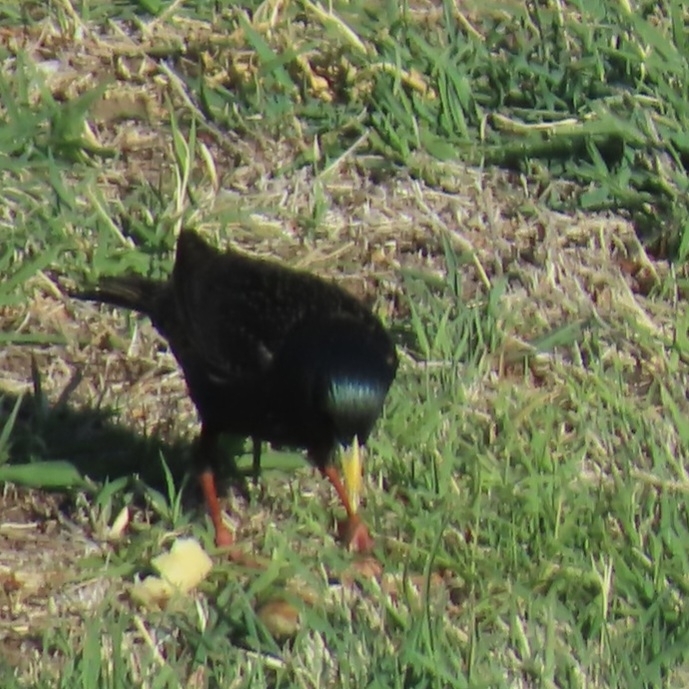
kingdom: Animalia
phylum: Chordata
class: Aves
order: Passeriformes
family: Sturnidae
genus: Sturnus
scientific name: Sturnus vulgaris
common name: Common starling
